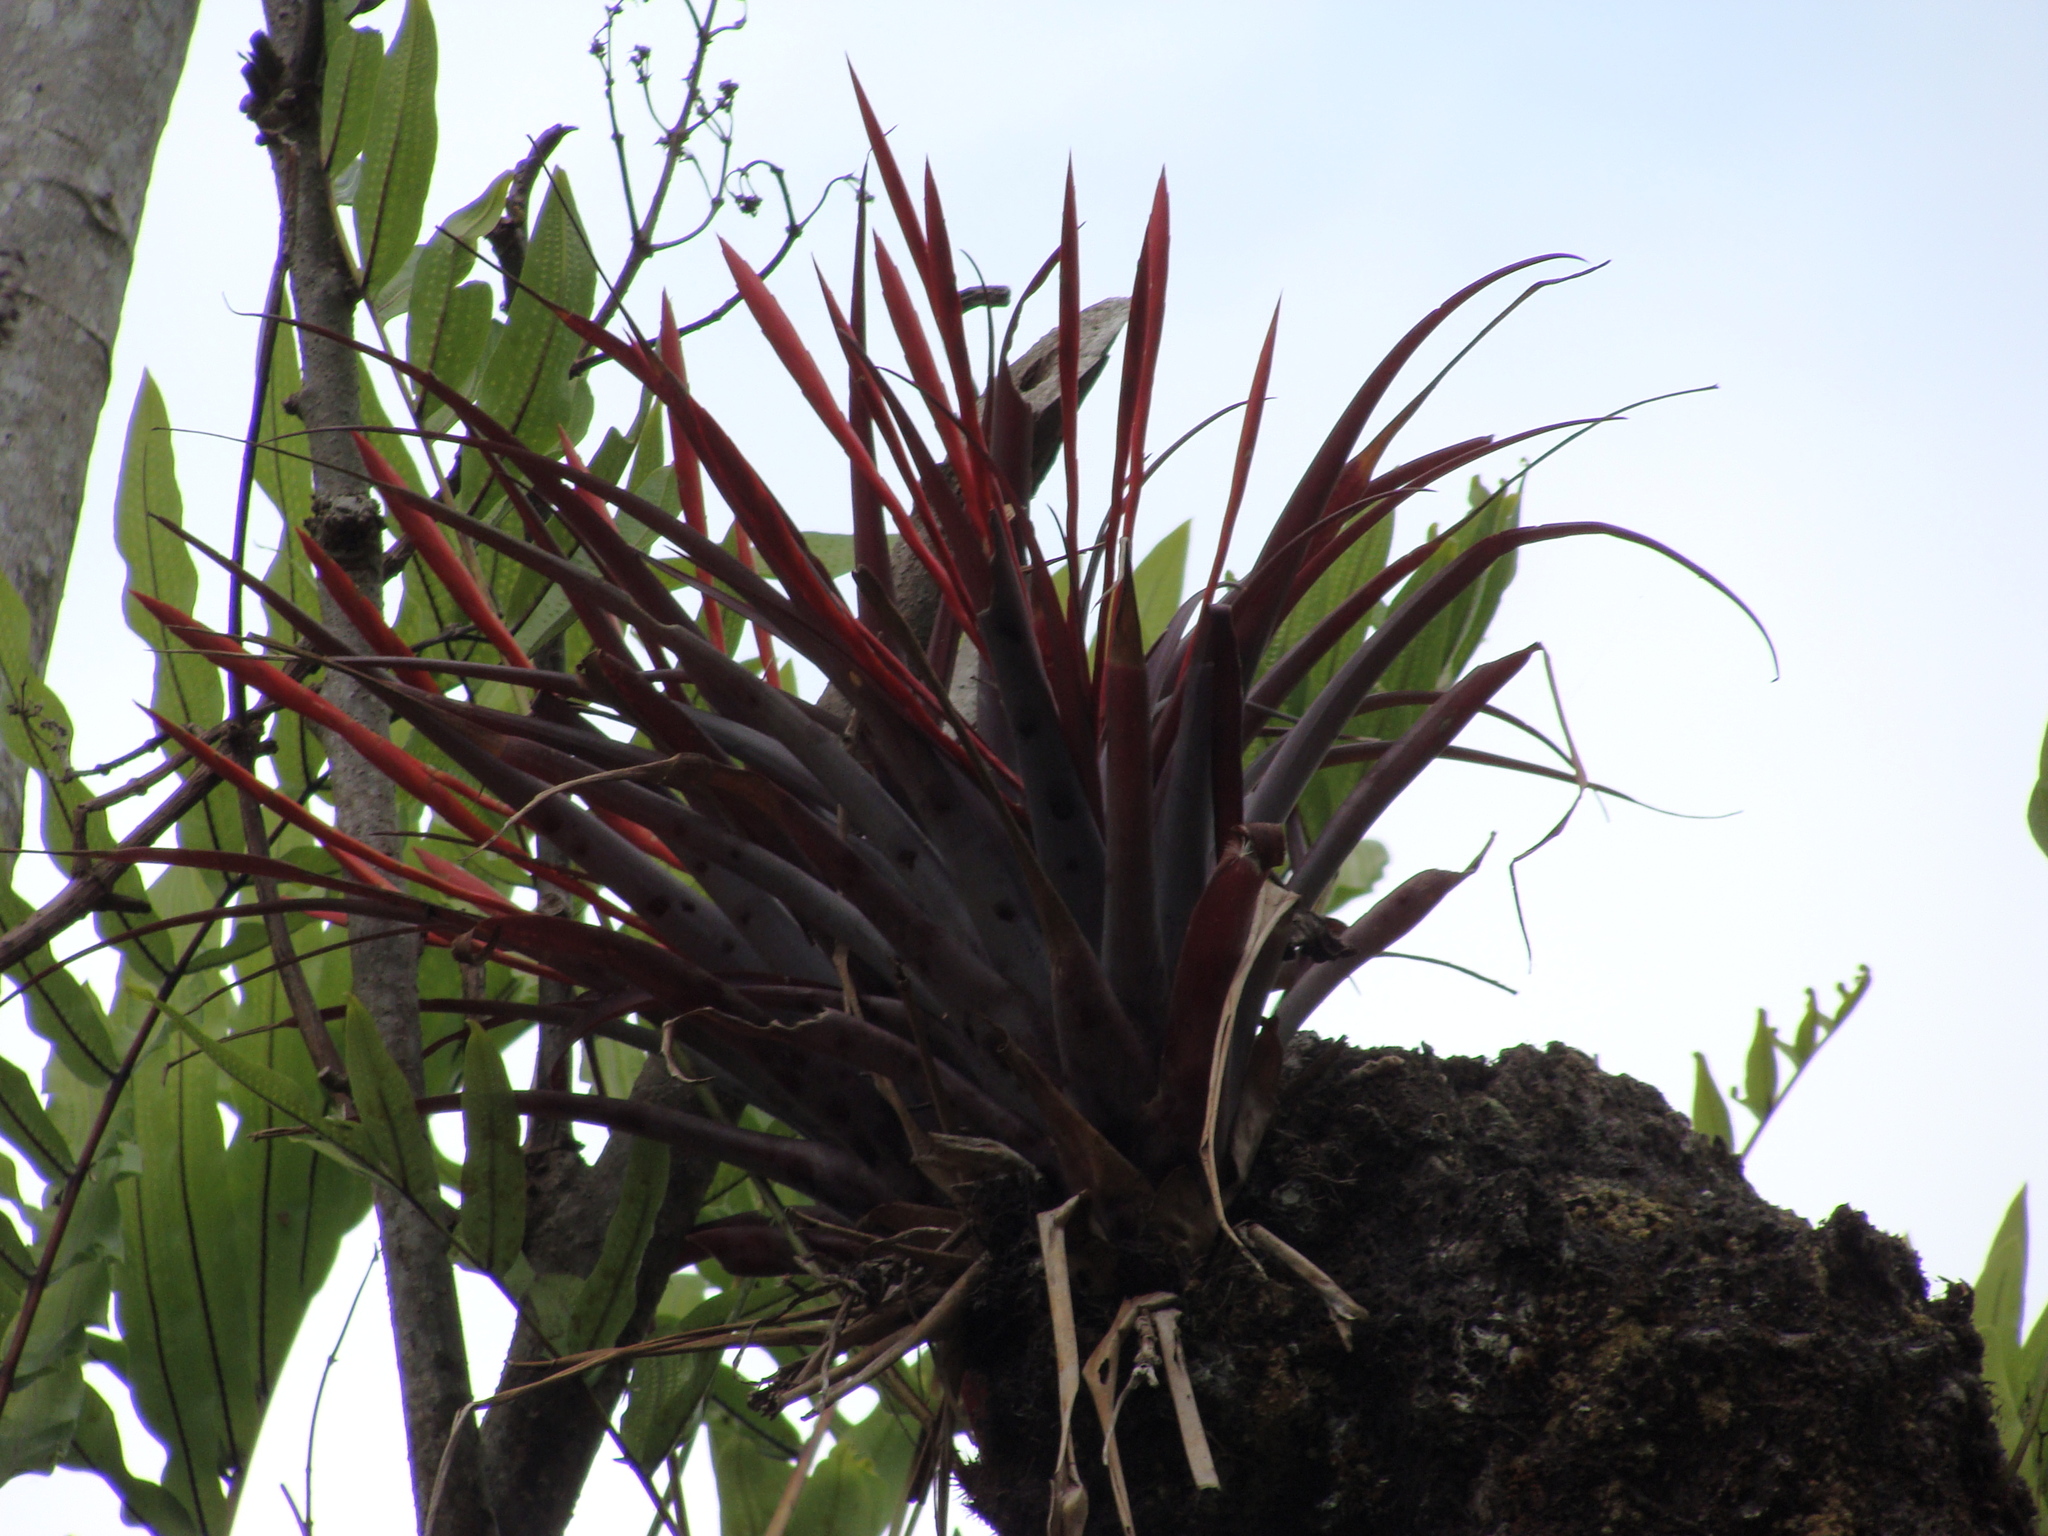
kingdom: Plantae
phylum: Tracheophyta
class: Liliopsida
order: Poales
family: Bromeliaceae
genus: Tillandsia
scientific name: Tillandsia flabellata
